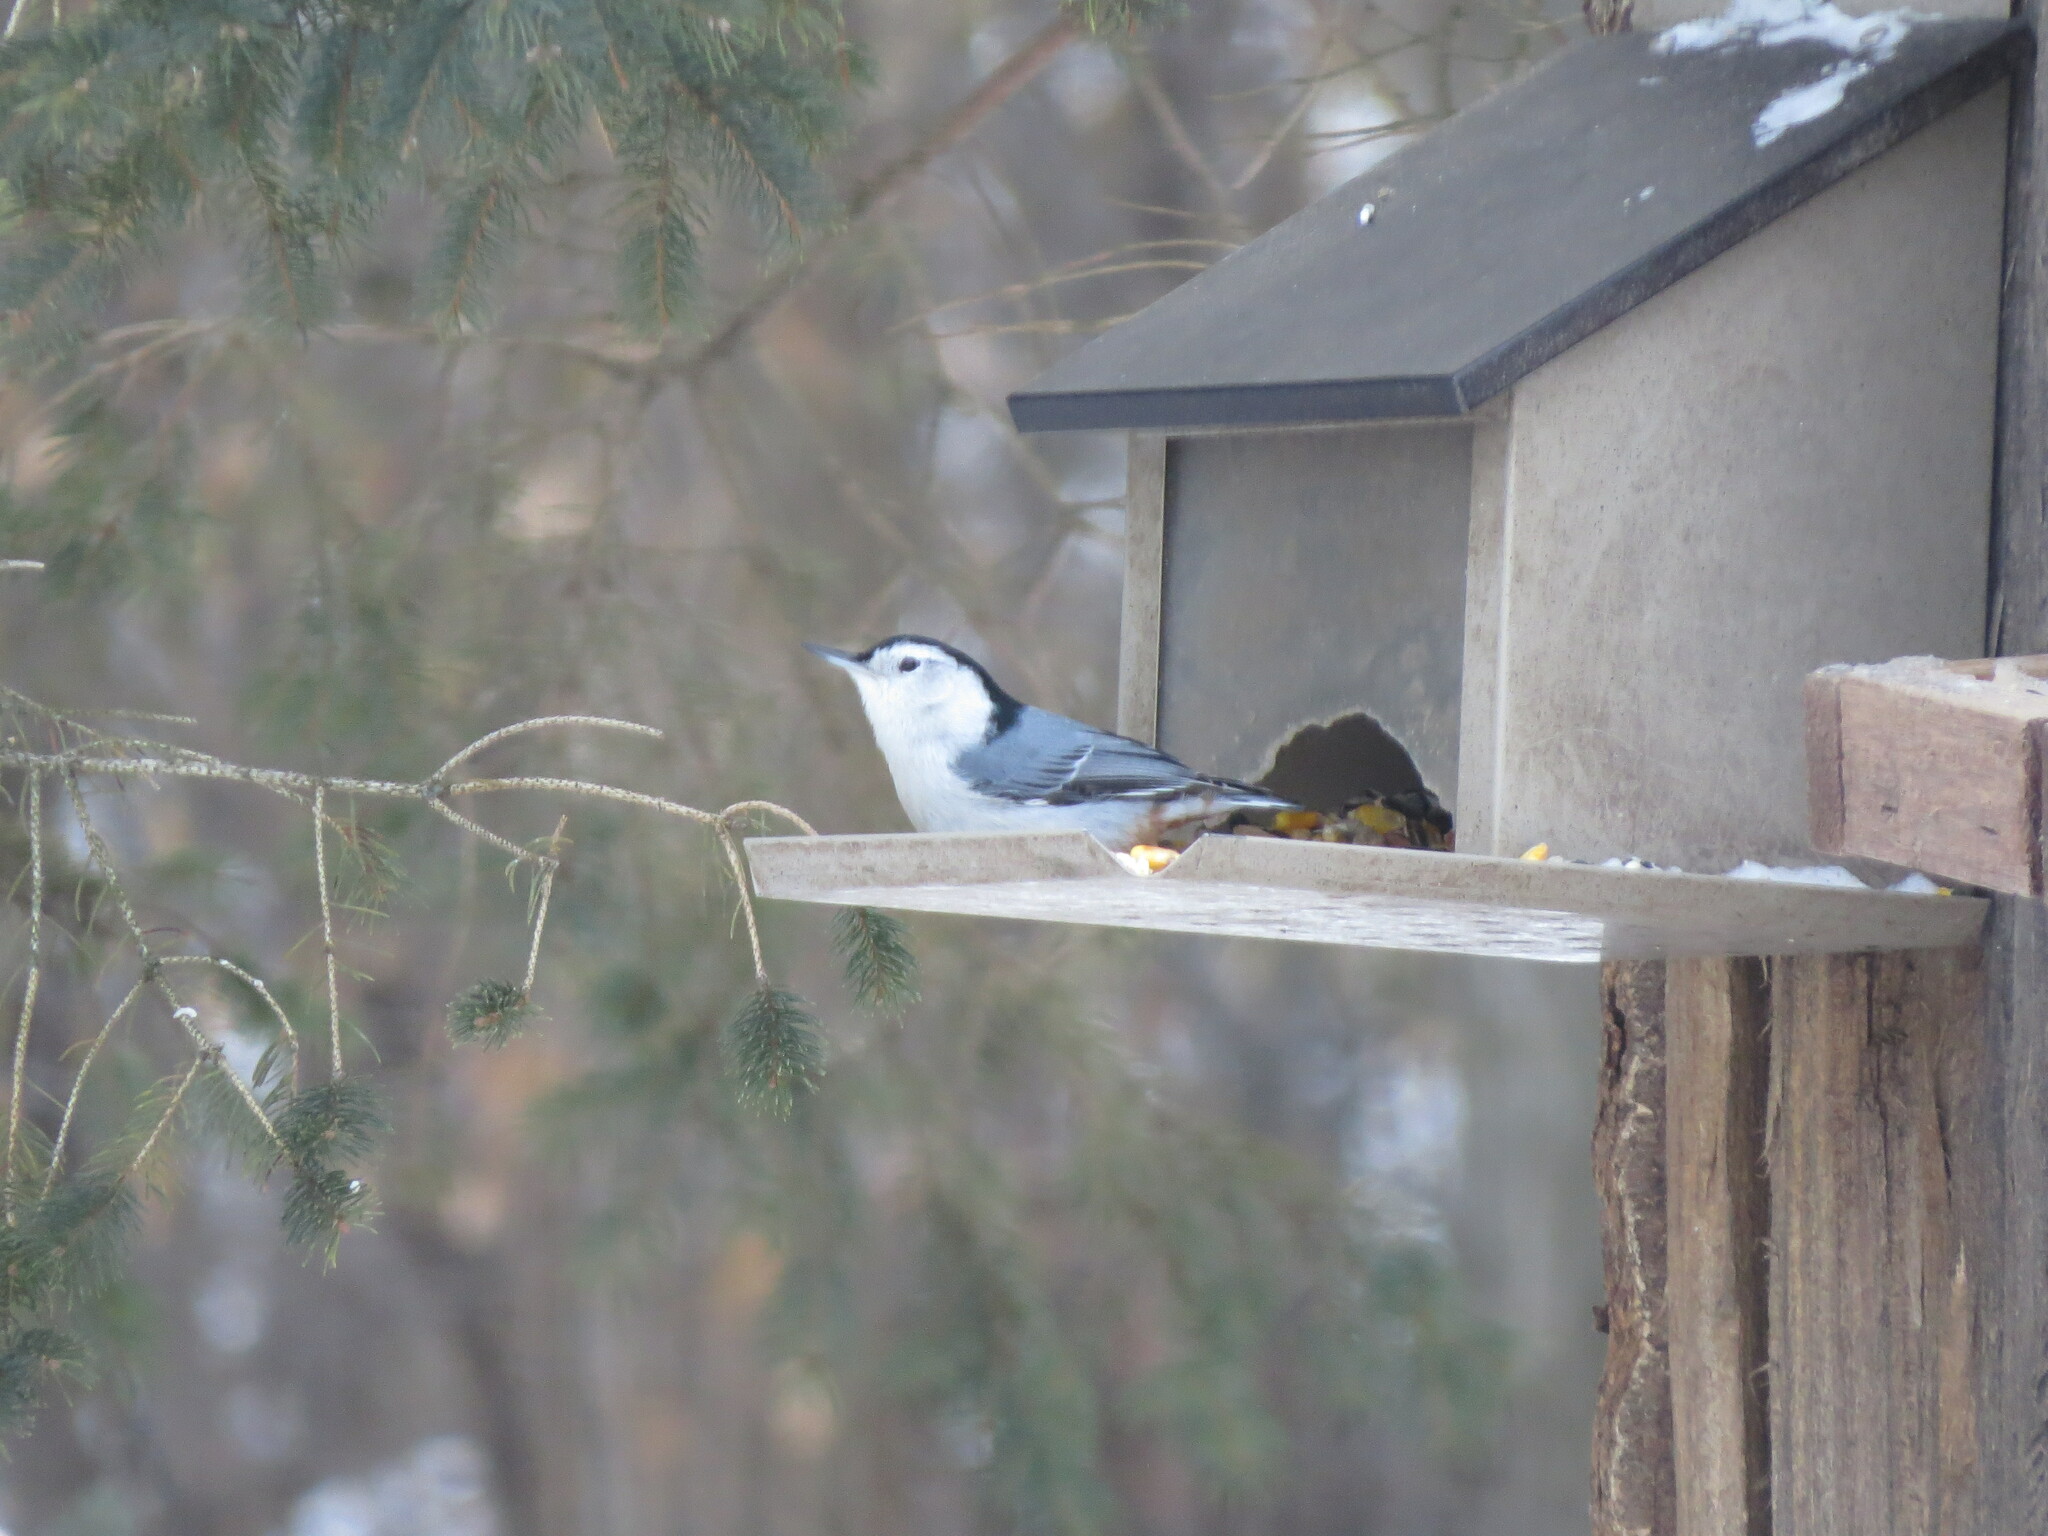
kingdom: Animalia
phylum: Chordata
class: Aves
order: Passeriformes
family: Sittidae
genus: Sitta
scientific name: Sitta carolinensis
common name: White-breasted nuthatch
